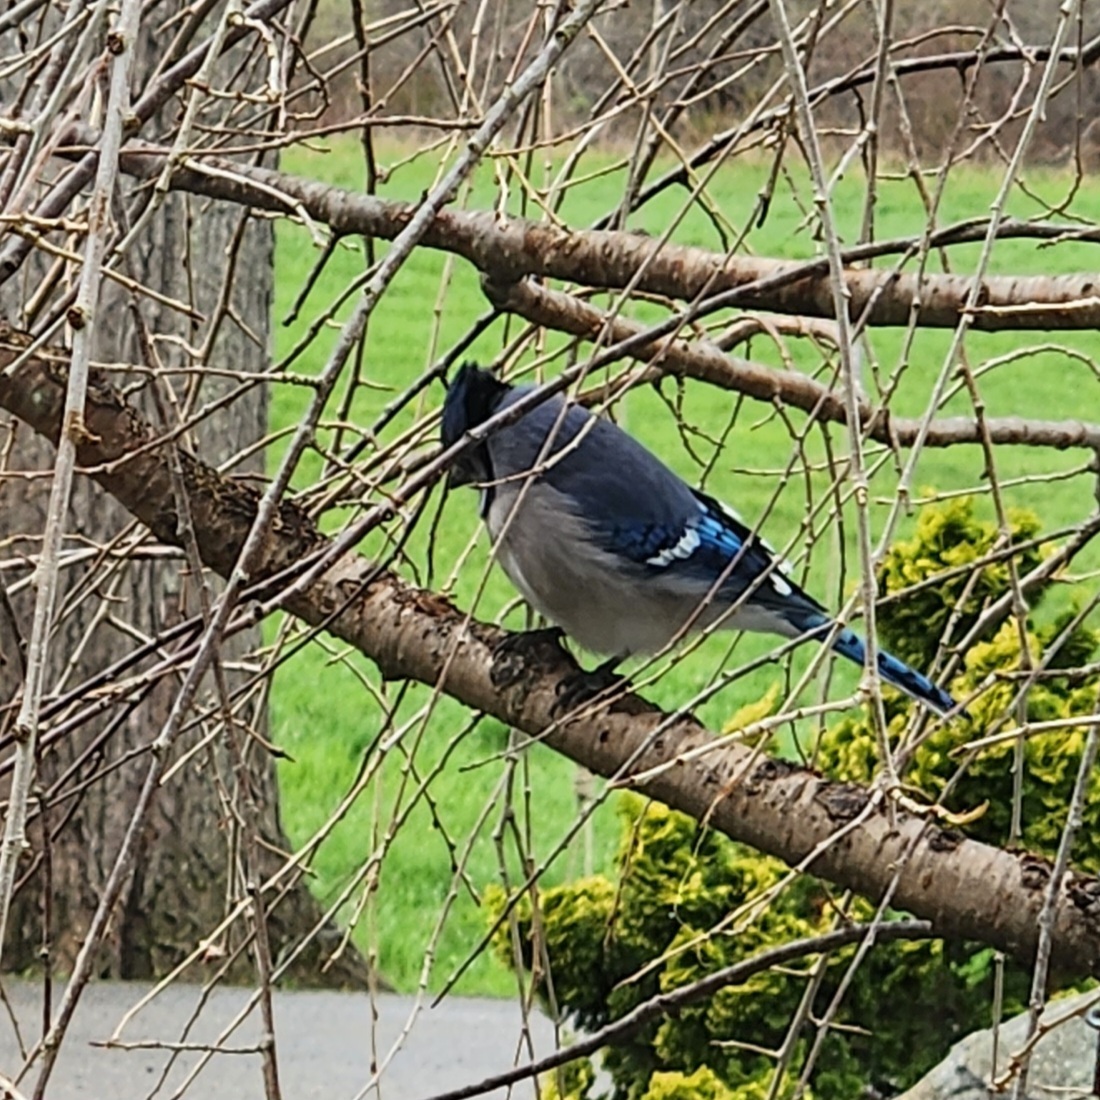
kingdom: Animalia
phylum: Chordata
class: Aves
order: Passeriformes
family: Corvidae
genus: Cyanocitta
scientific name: Cyanocitta cristata
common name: Blue jay
